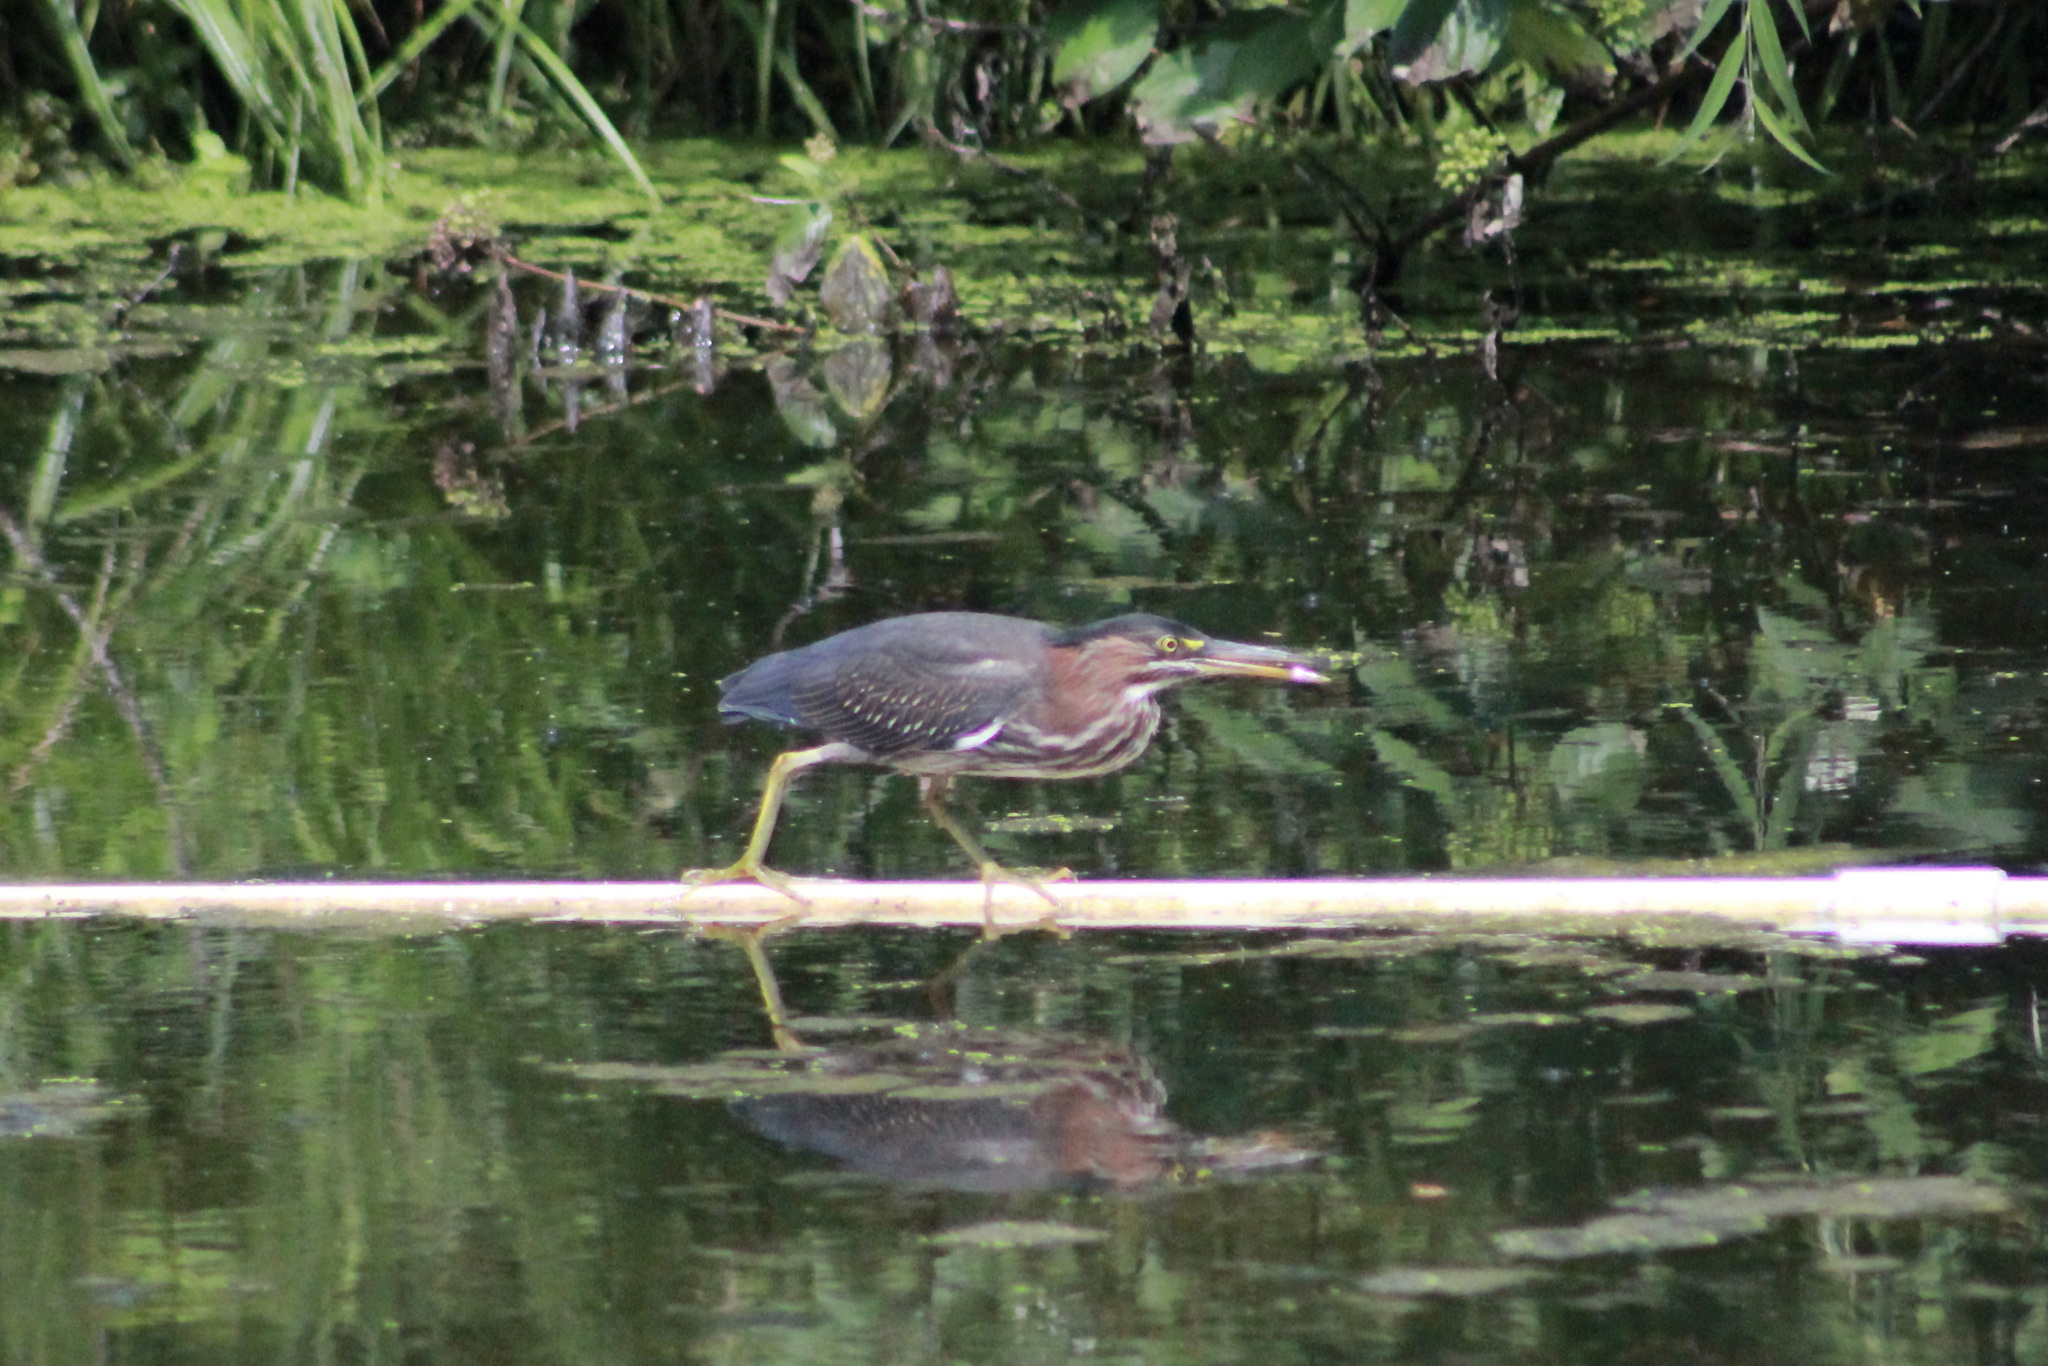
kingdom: Animalia
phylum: Chordata
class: Aves
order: Pelecaniformes
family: Ardeidae
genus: Butorides
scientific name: Butorides virescens
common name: Green heron
